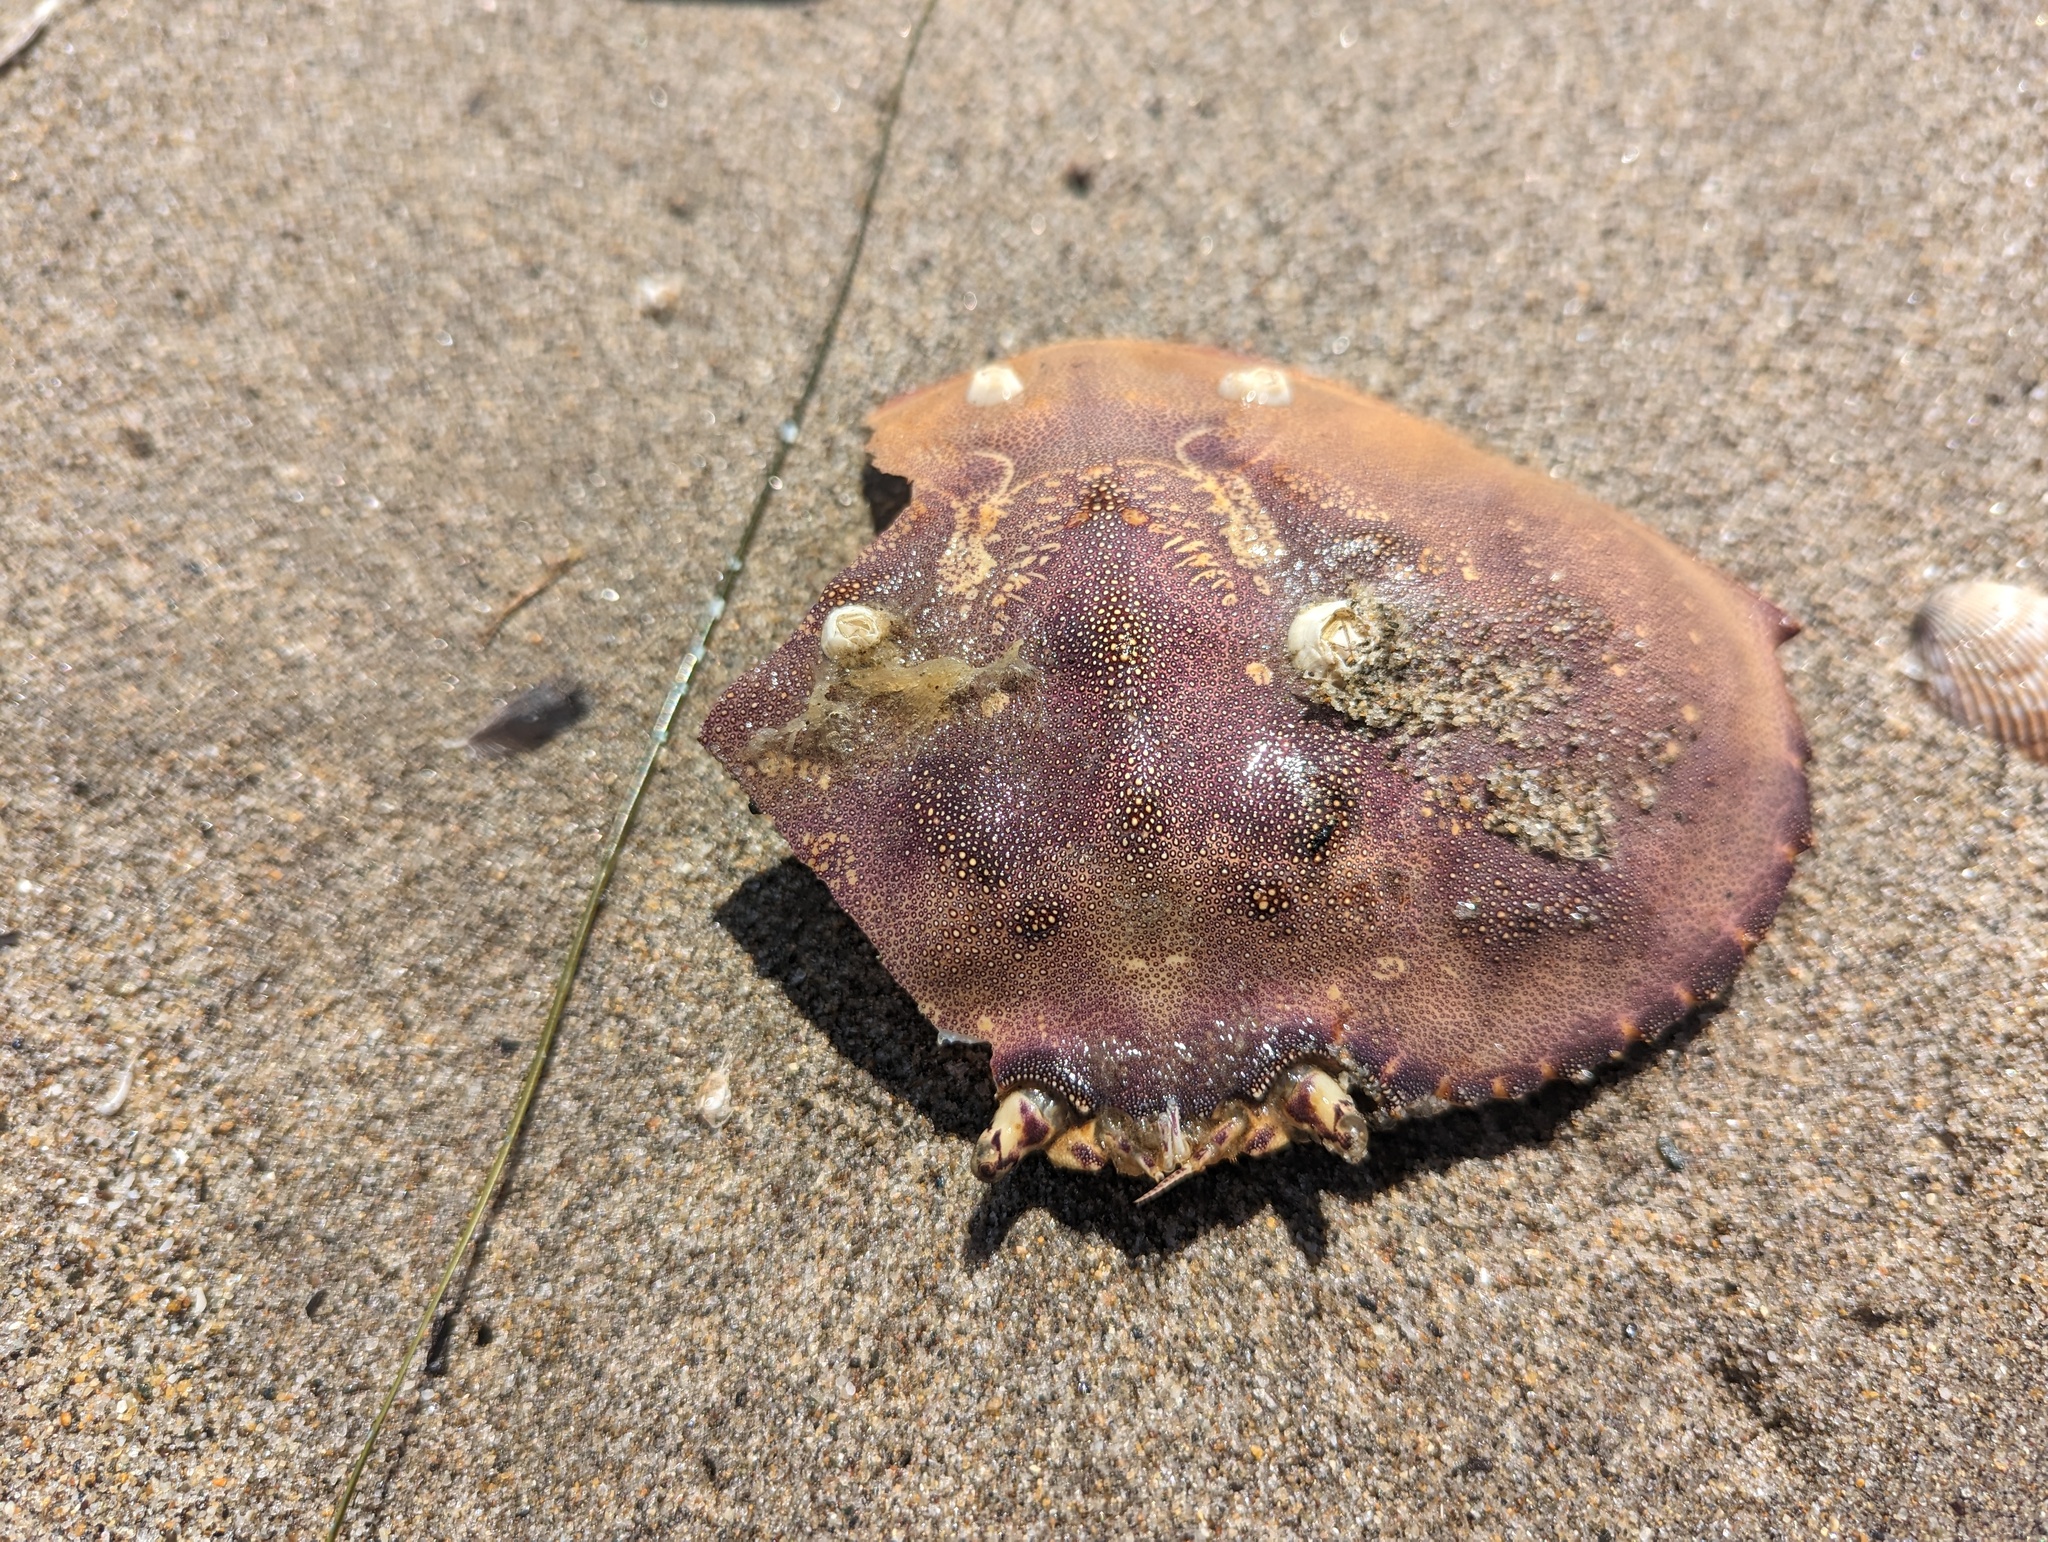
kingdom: Animalia
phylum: Arthropoda
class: Malacostraca
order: Decapoda
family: Cancridae
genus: Metacarcinus
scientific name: Metacarcinus magister
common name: Californian crab
